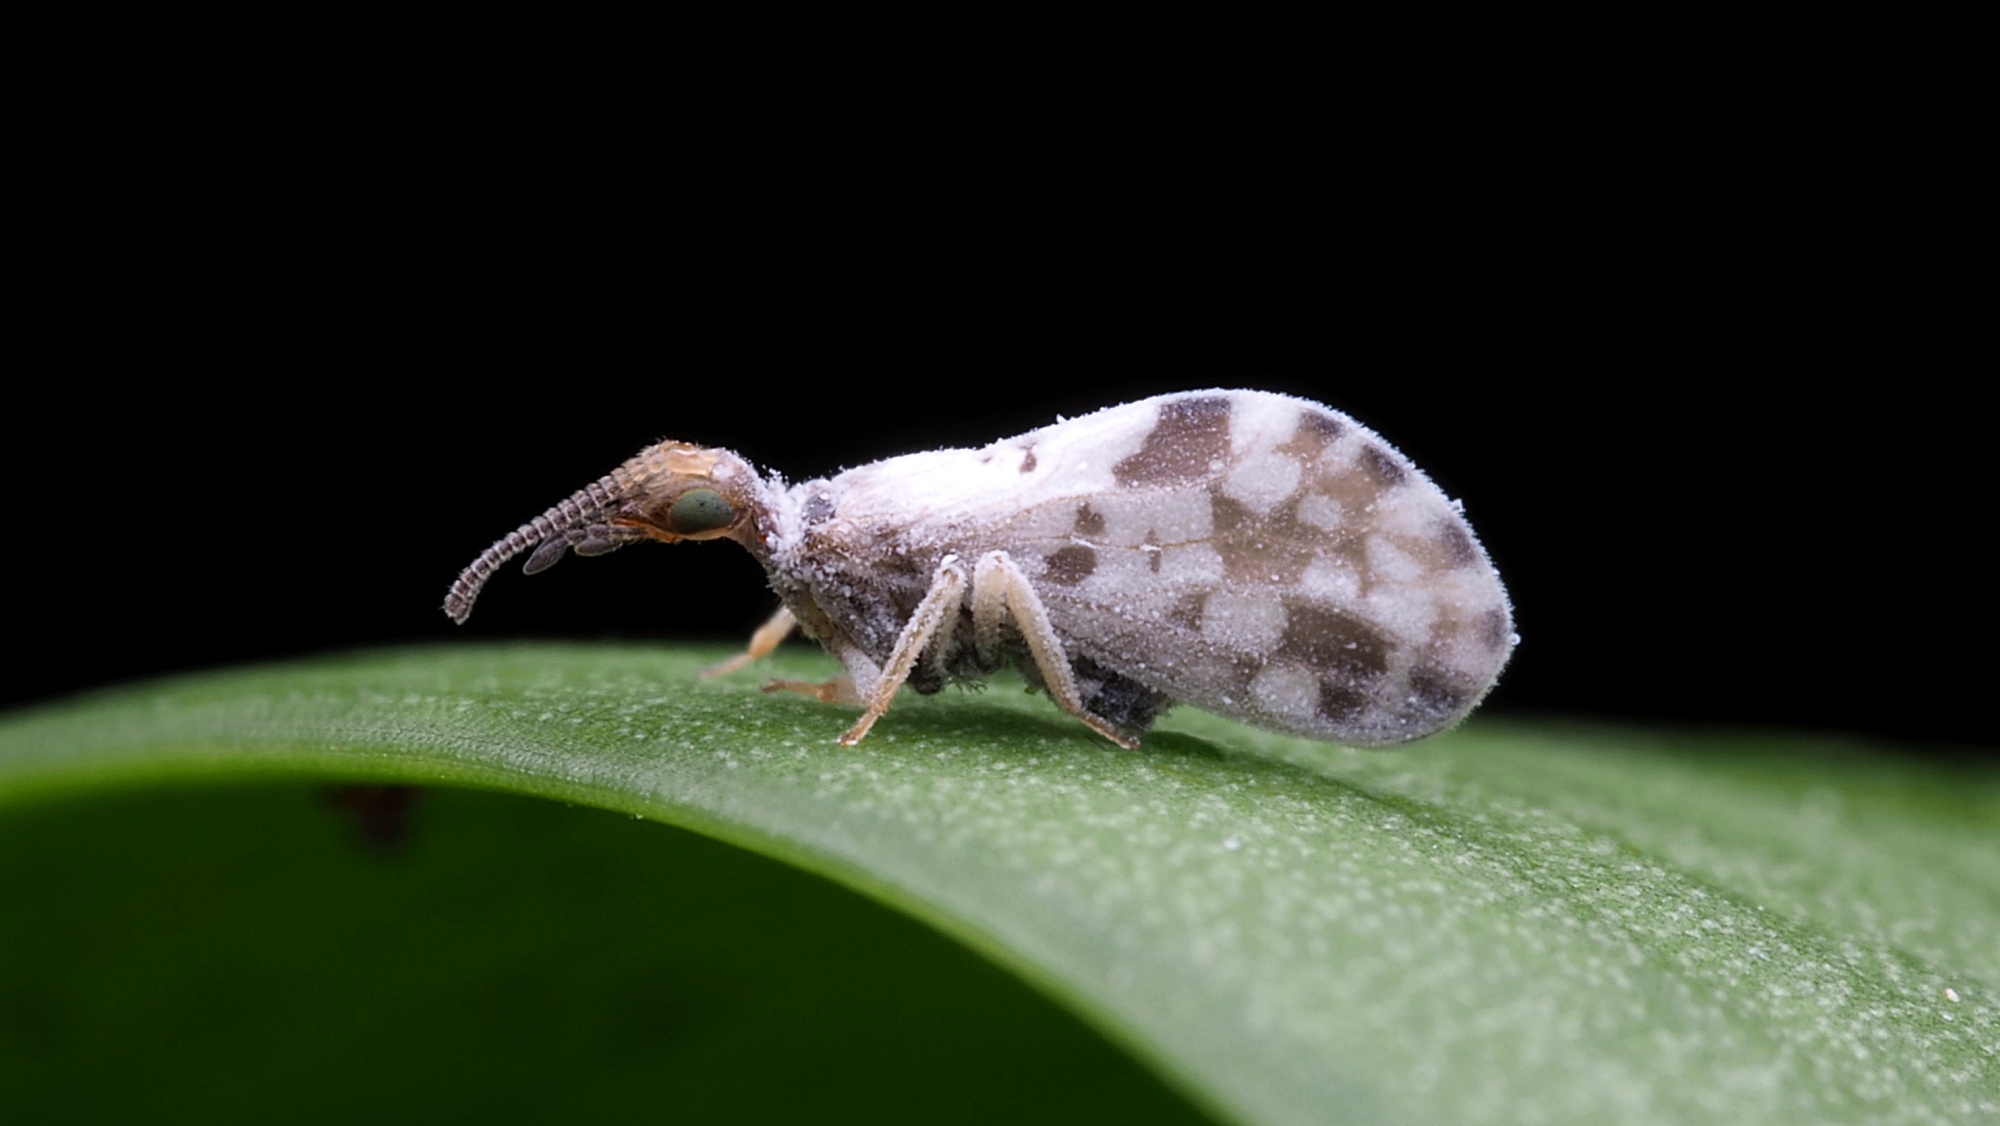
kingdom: Animalia
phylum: Arthropoda
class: Insecta
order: Neuroptera
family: Coniopterygidae
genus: Heteroconis
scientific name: Heteroconis ornata
